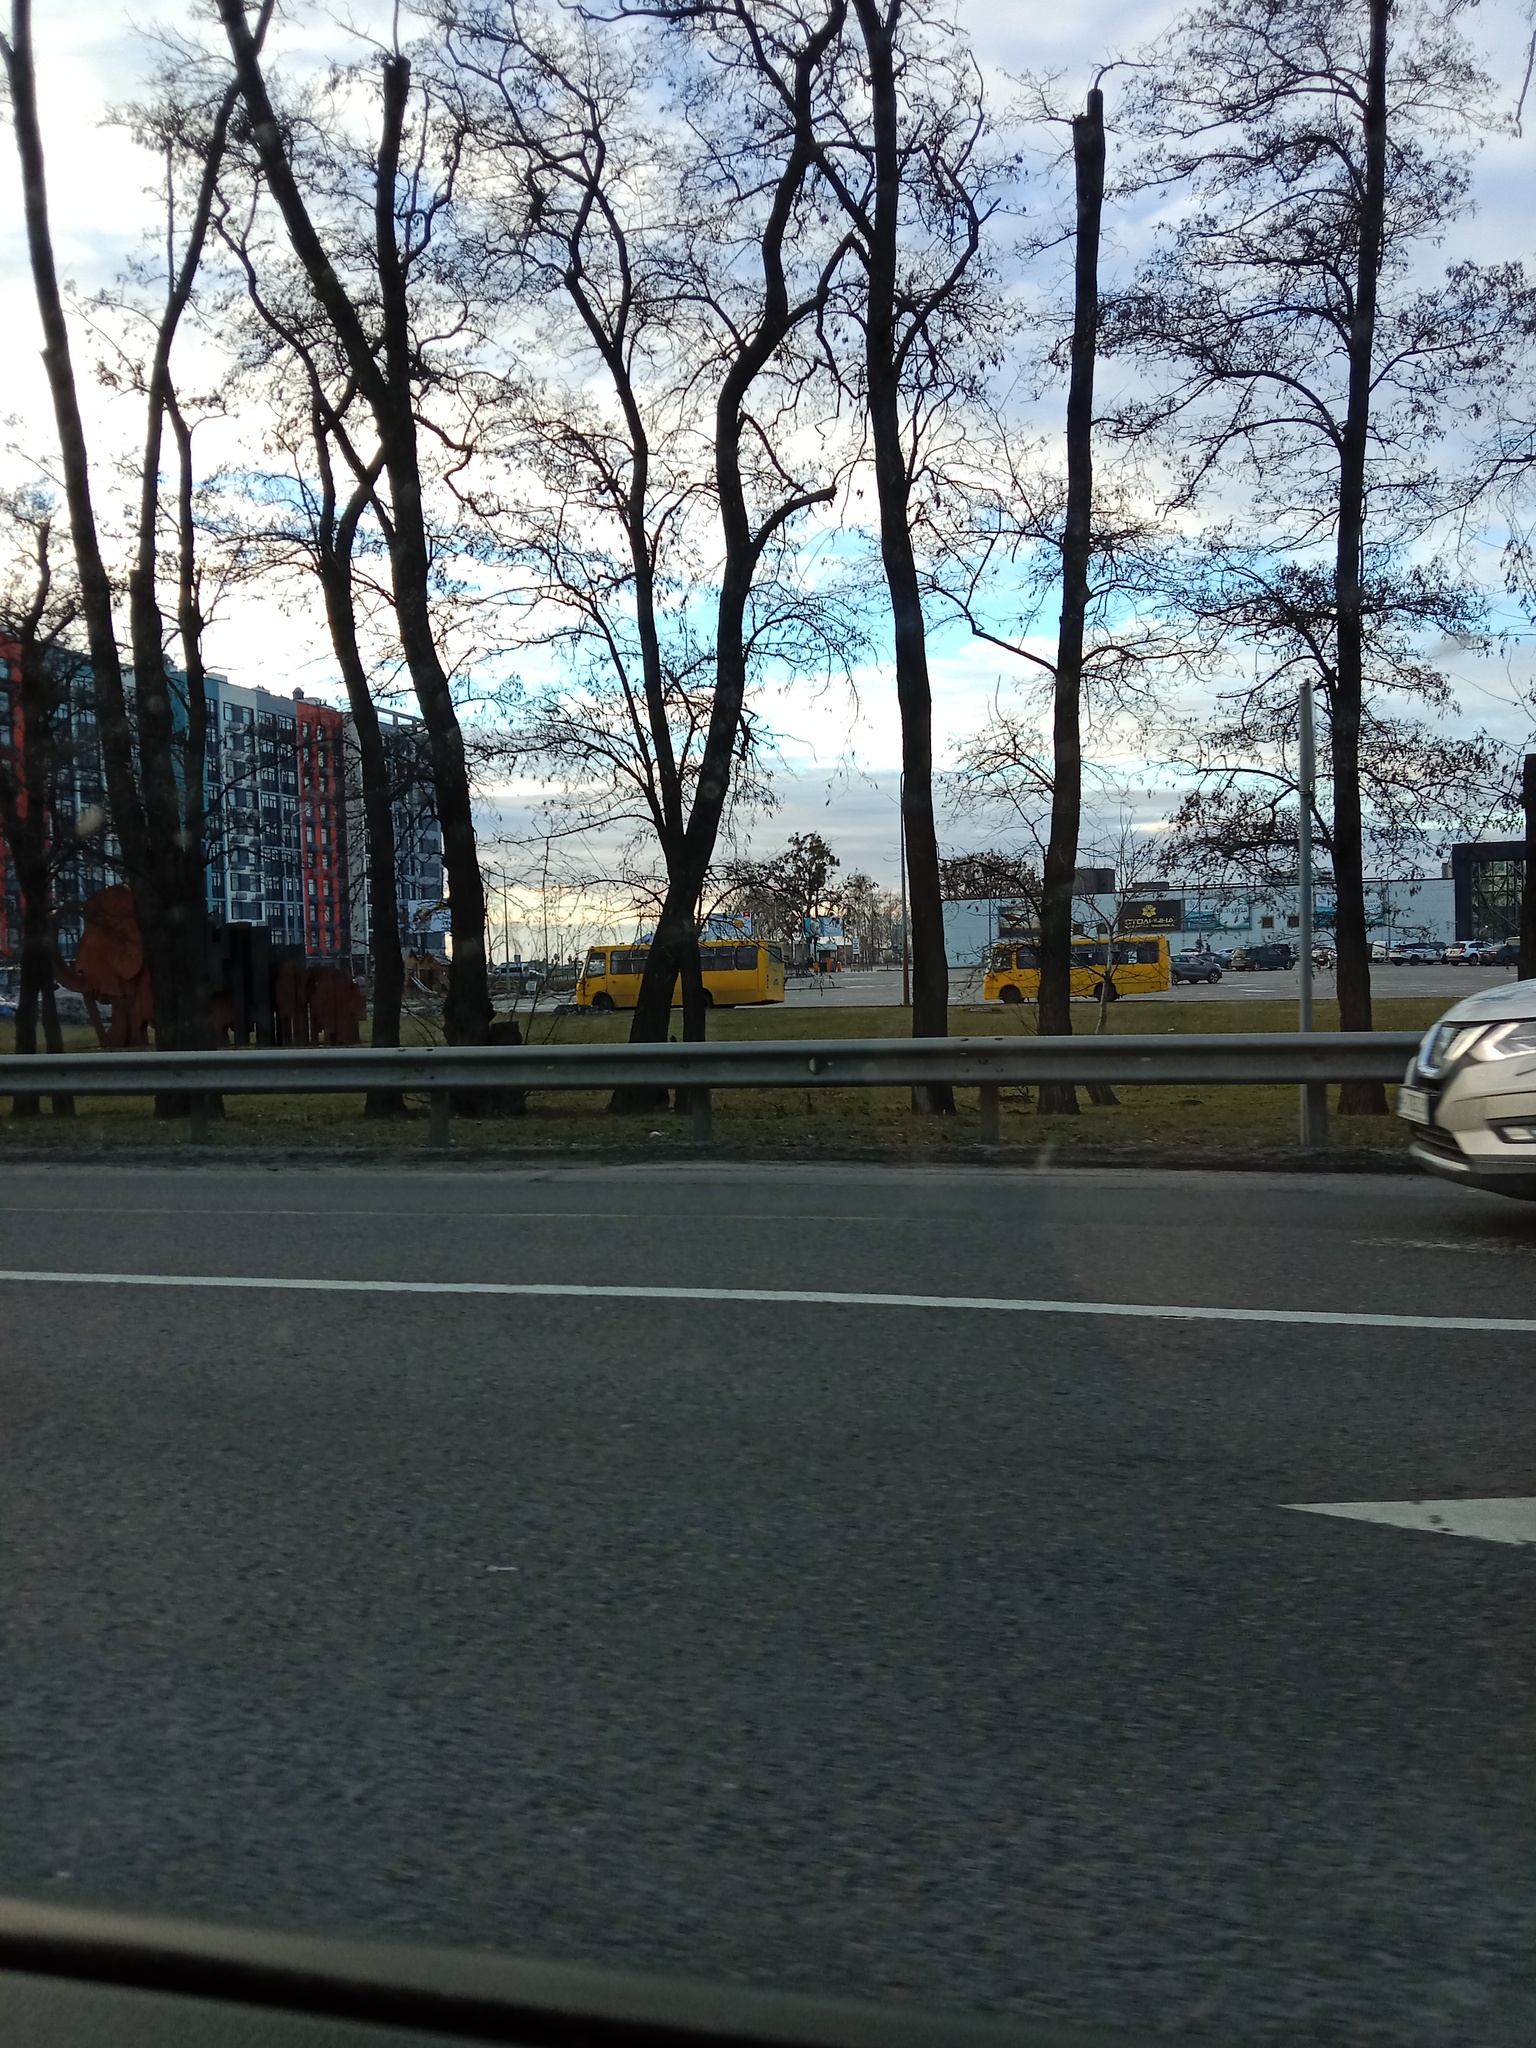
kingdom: Plantae
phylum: Tracheophyta
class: Magnoliopsida
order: Santalales
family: Viscaceae
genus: Viscum
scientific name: Viscum album
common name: Mistletoe
